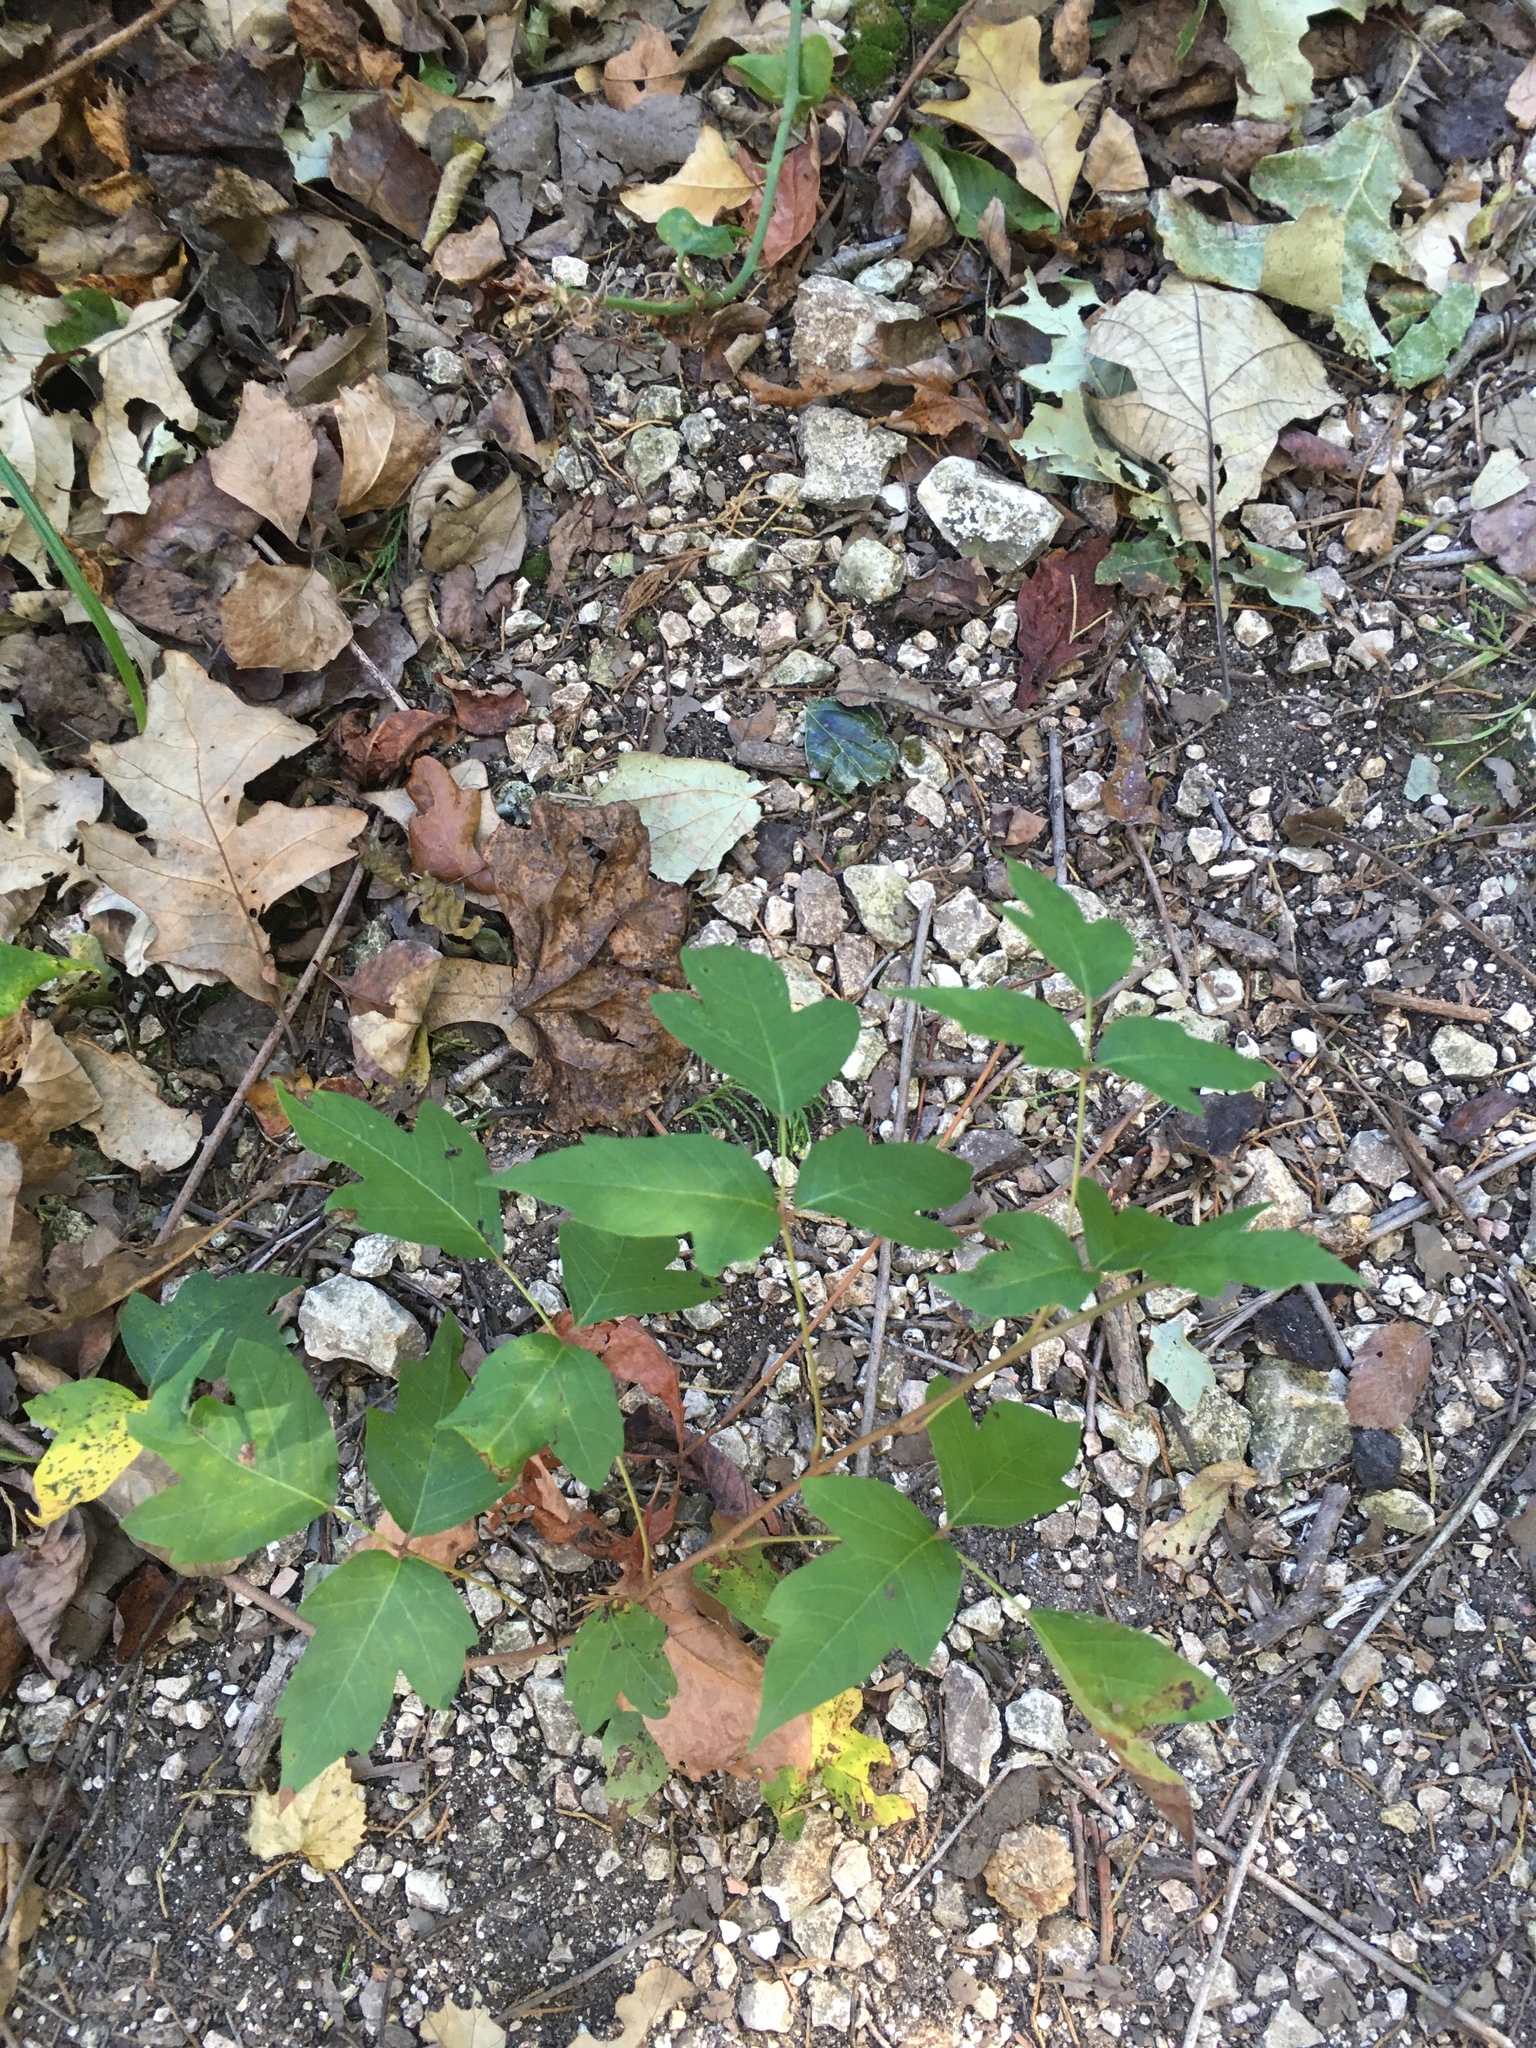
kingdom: Plantae
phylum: Tracheophyta
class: Magnoliopsida
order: Sapindales
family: Anacardiaceae
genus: Toxicodendron
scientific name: Toxicodendron radicans
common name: Poison ivy
